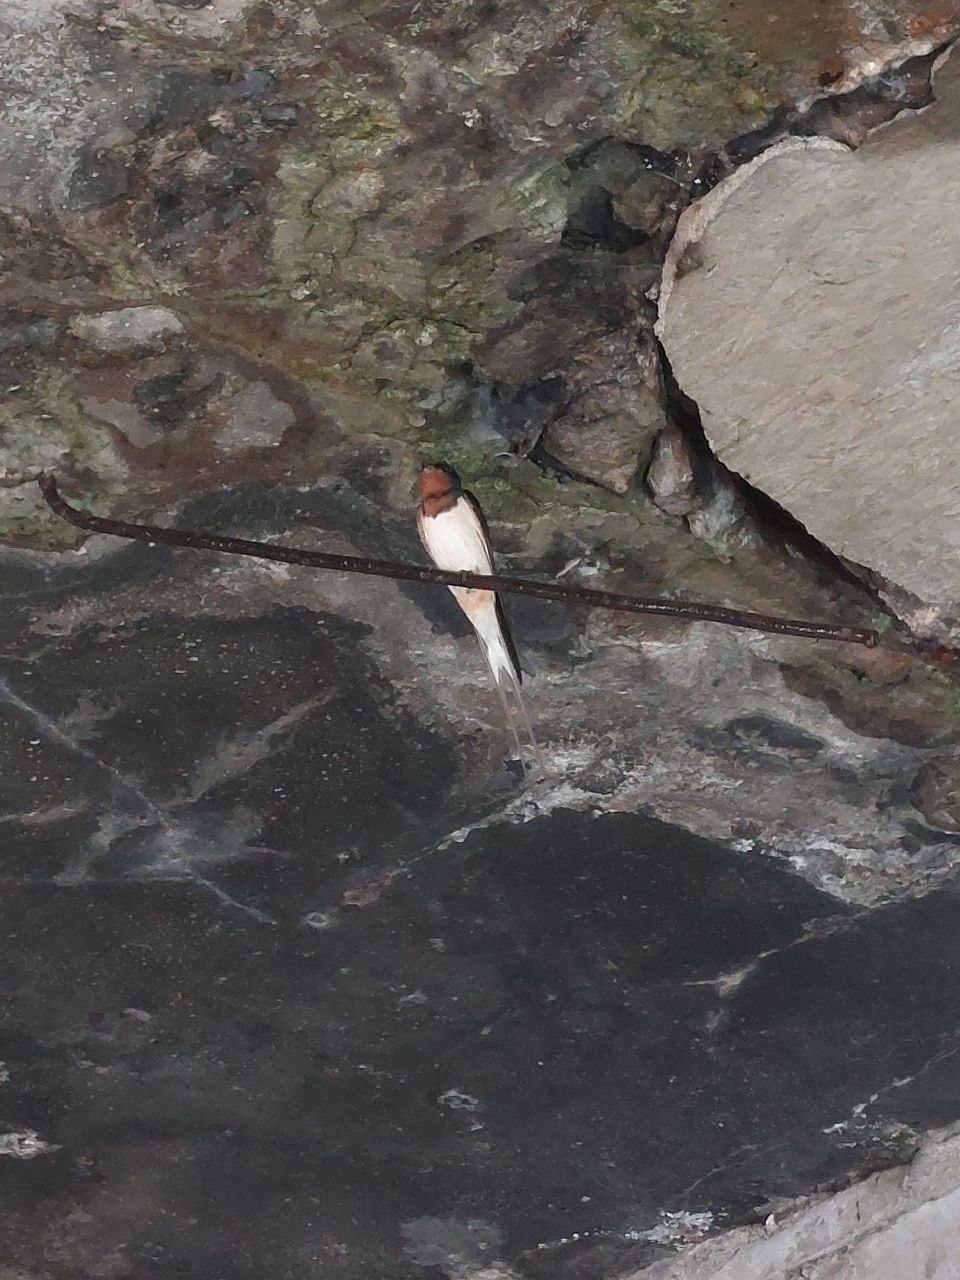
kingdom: Animalia
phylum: Chordata
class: Aves
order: Passeriformes
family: Hirundinidae
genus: Hirundo
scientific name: Hirundo rustica
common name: Barn swallow
